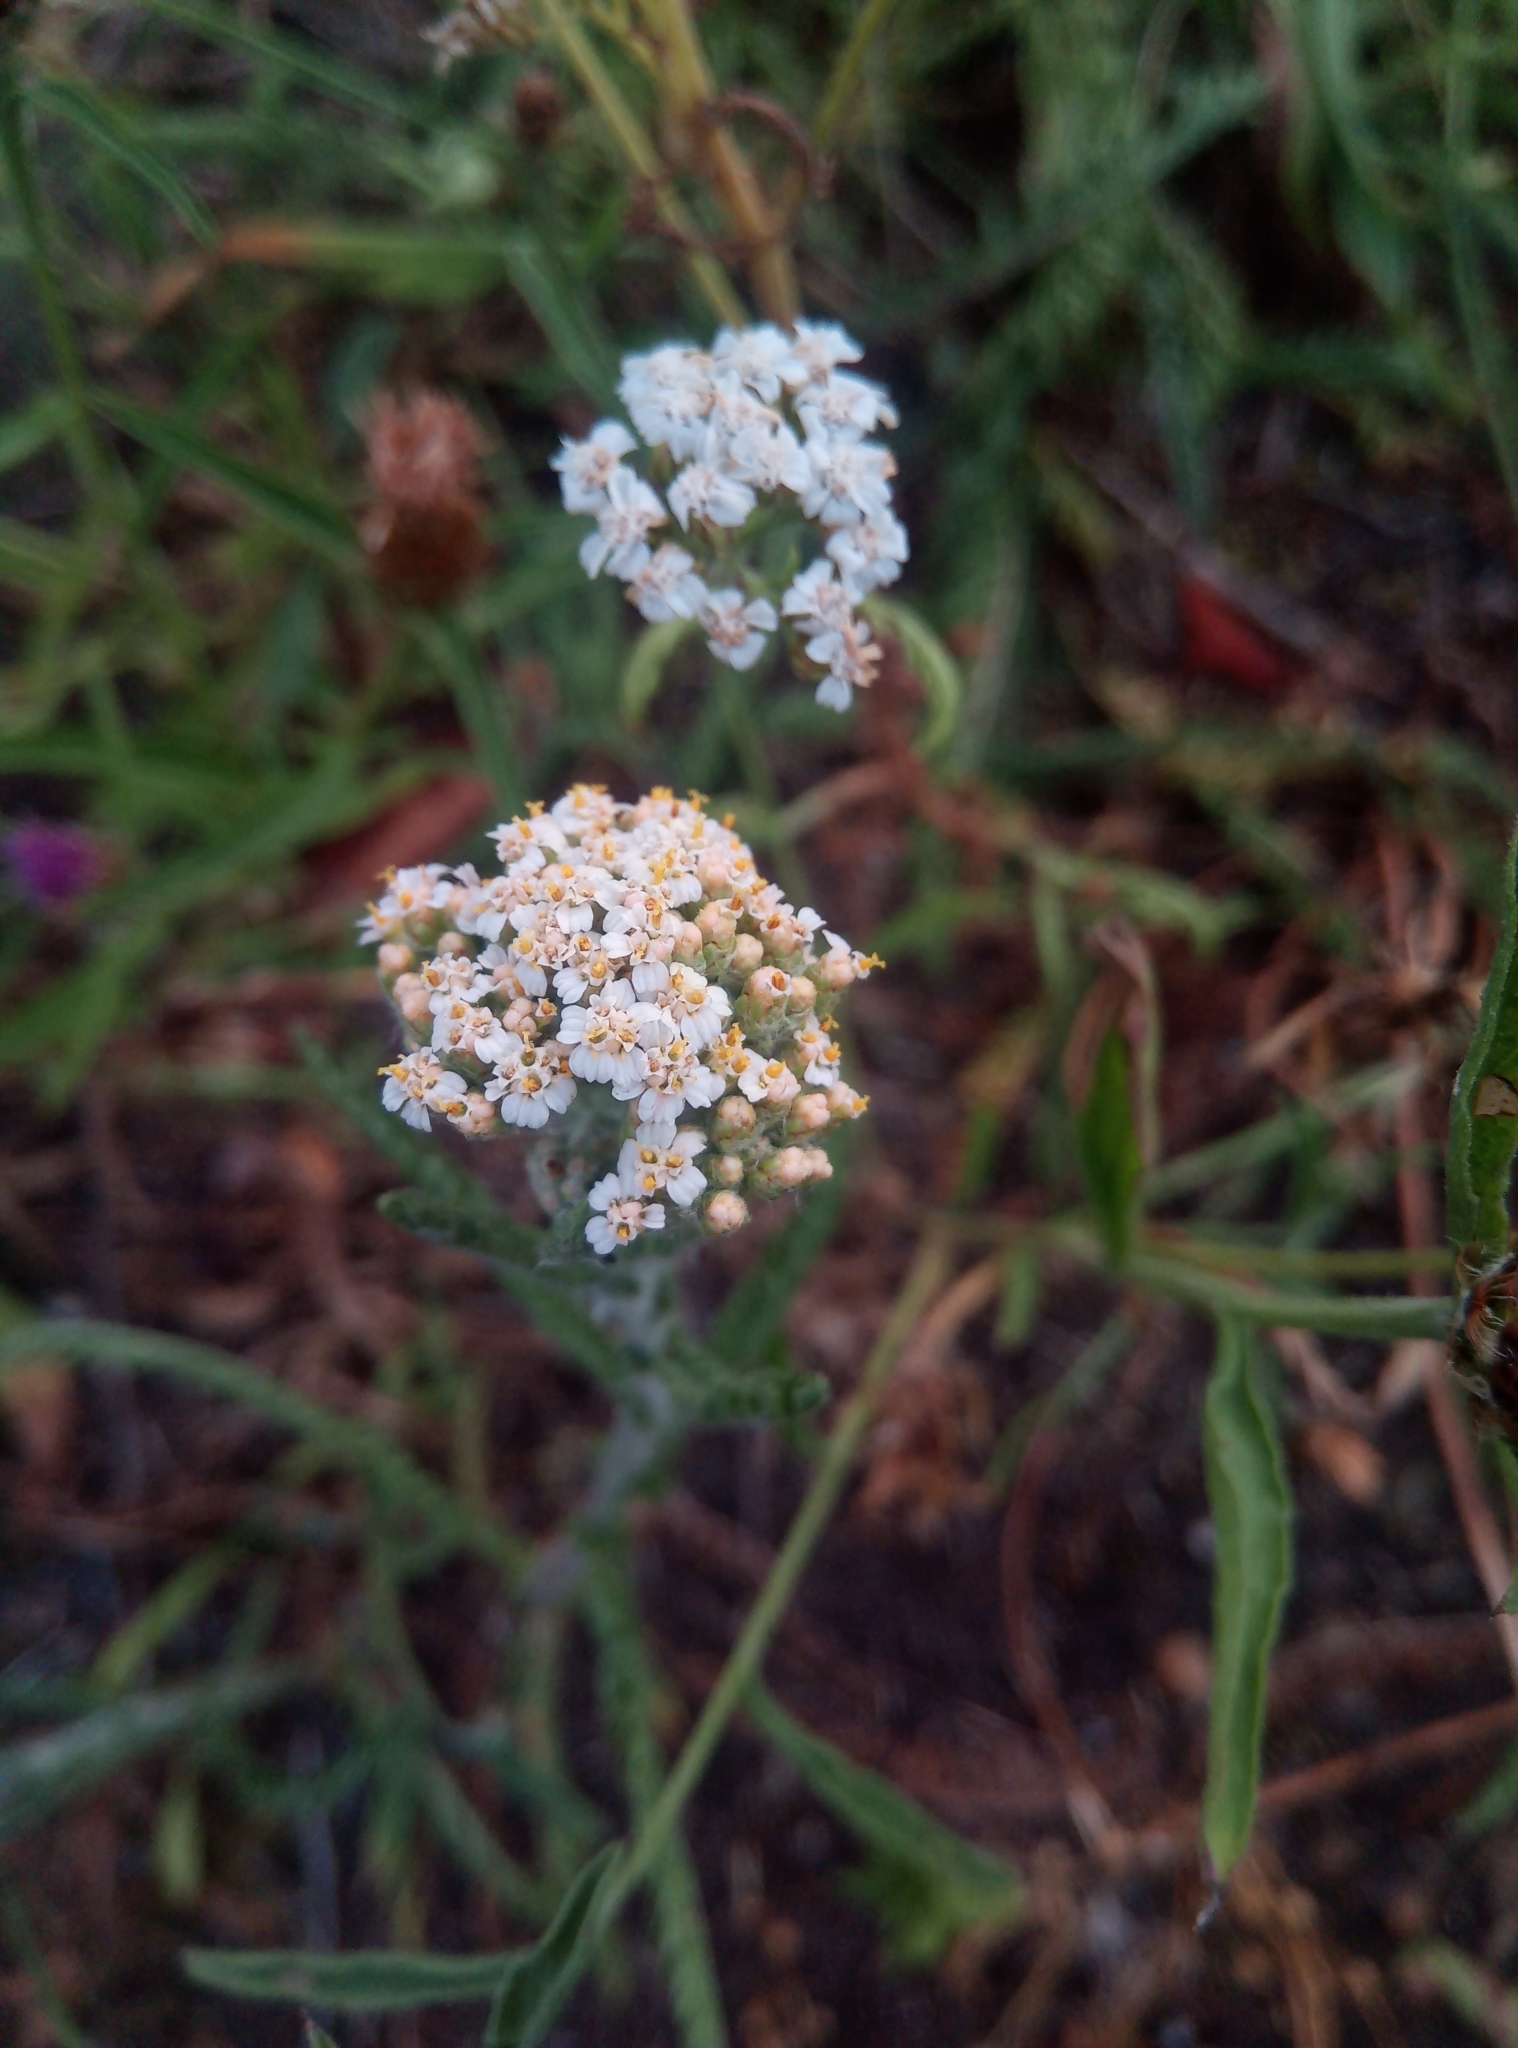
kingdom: Plantae
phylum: Tracheophyta
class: Magnoliopsida
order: Asterales
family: Asteraceae
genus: Achillea
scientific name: Achillea millefolium
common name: Yarrow
